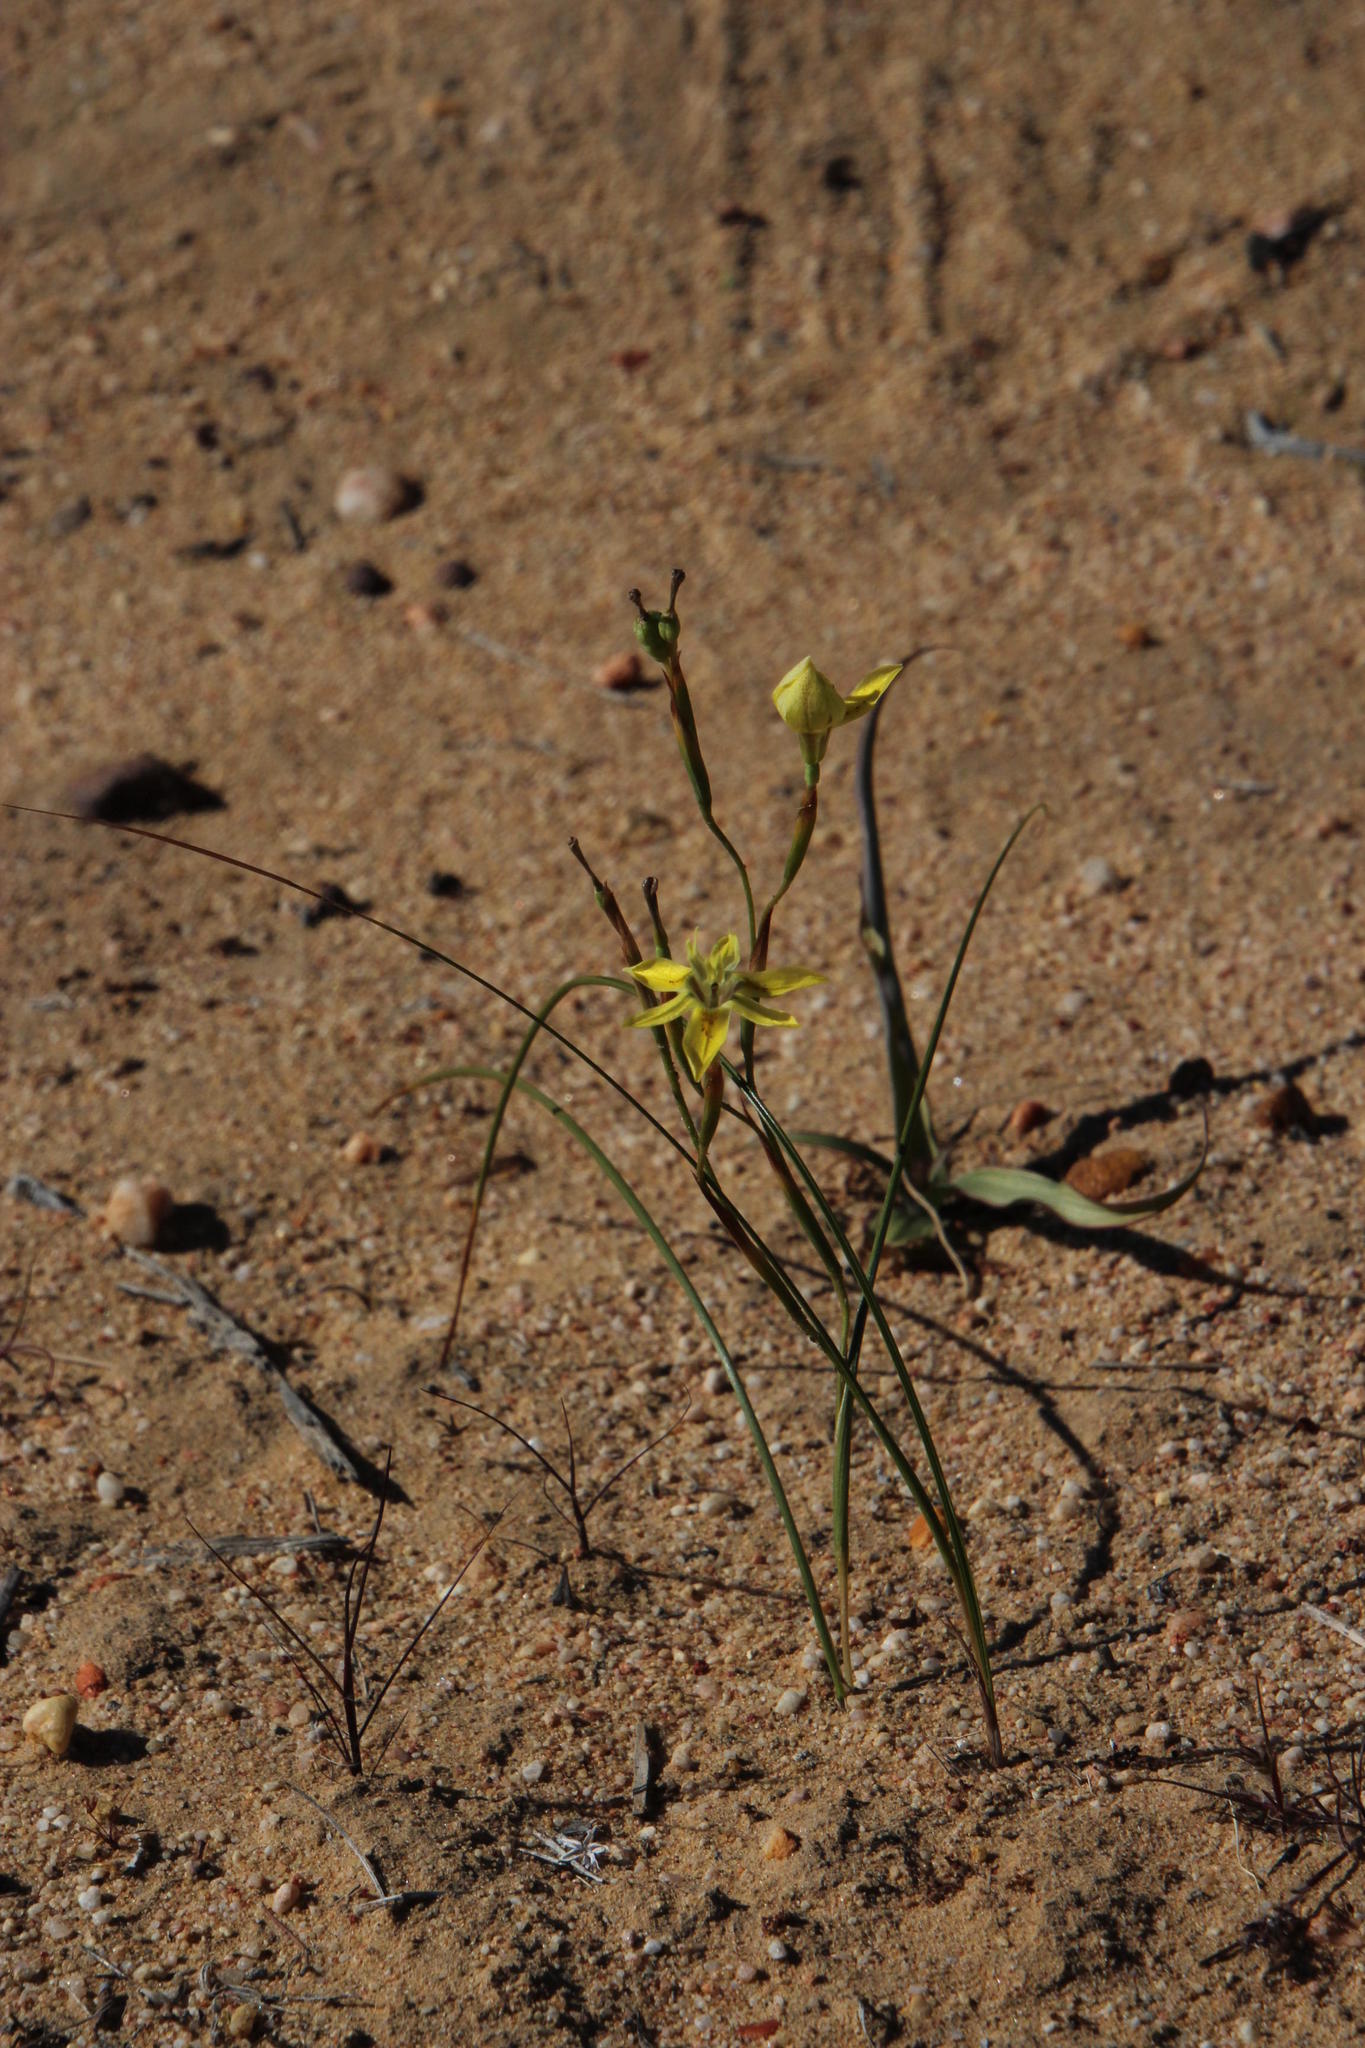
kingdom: Plantae
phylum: Tracheophyta
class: Liliopsida
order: Asparagales
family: Iridaceae
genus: Moraea
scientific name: Moraea inconspicua
